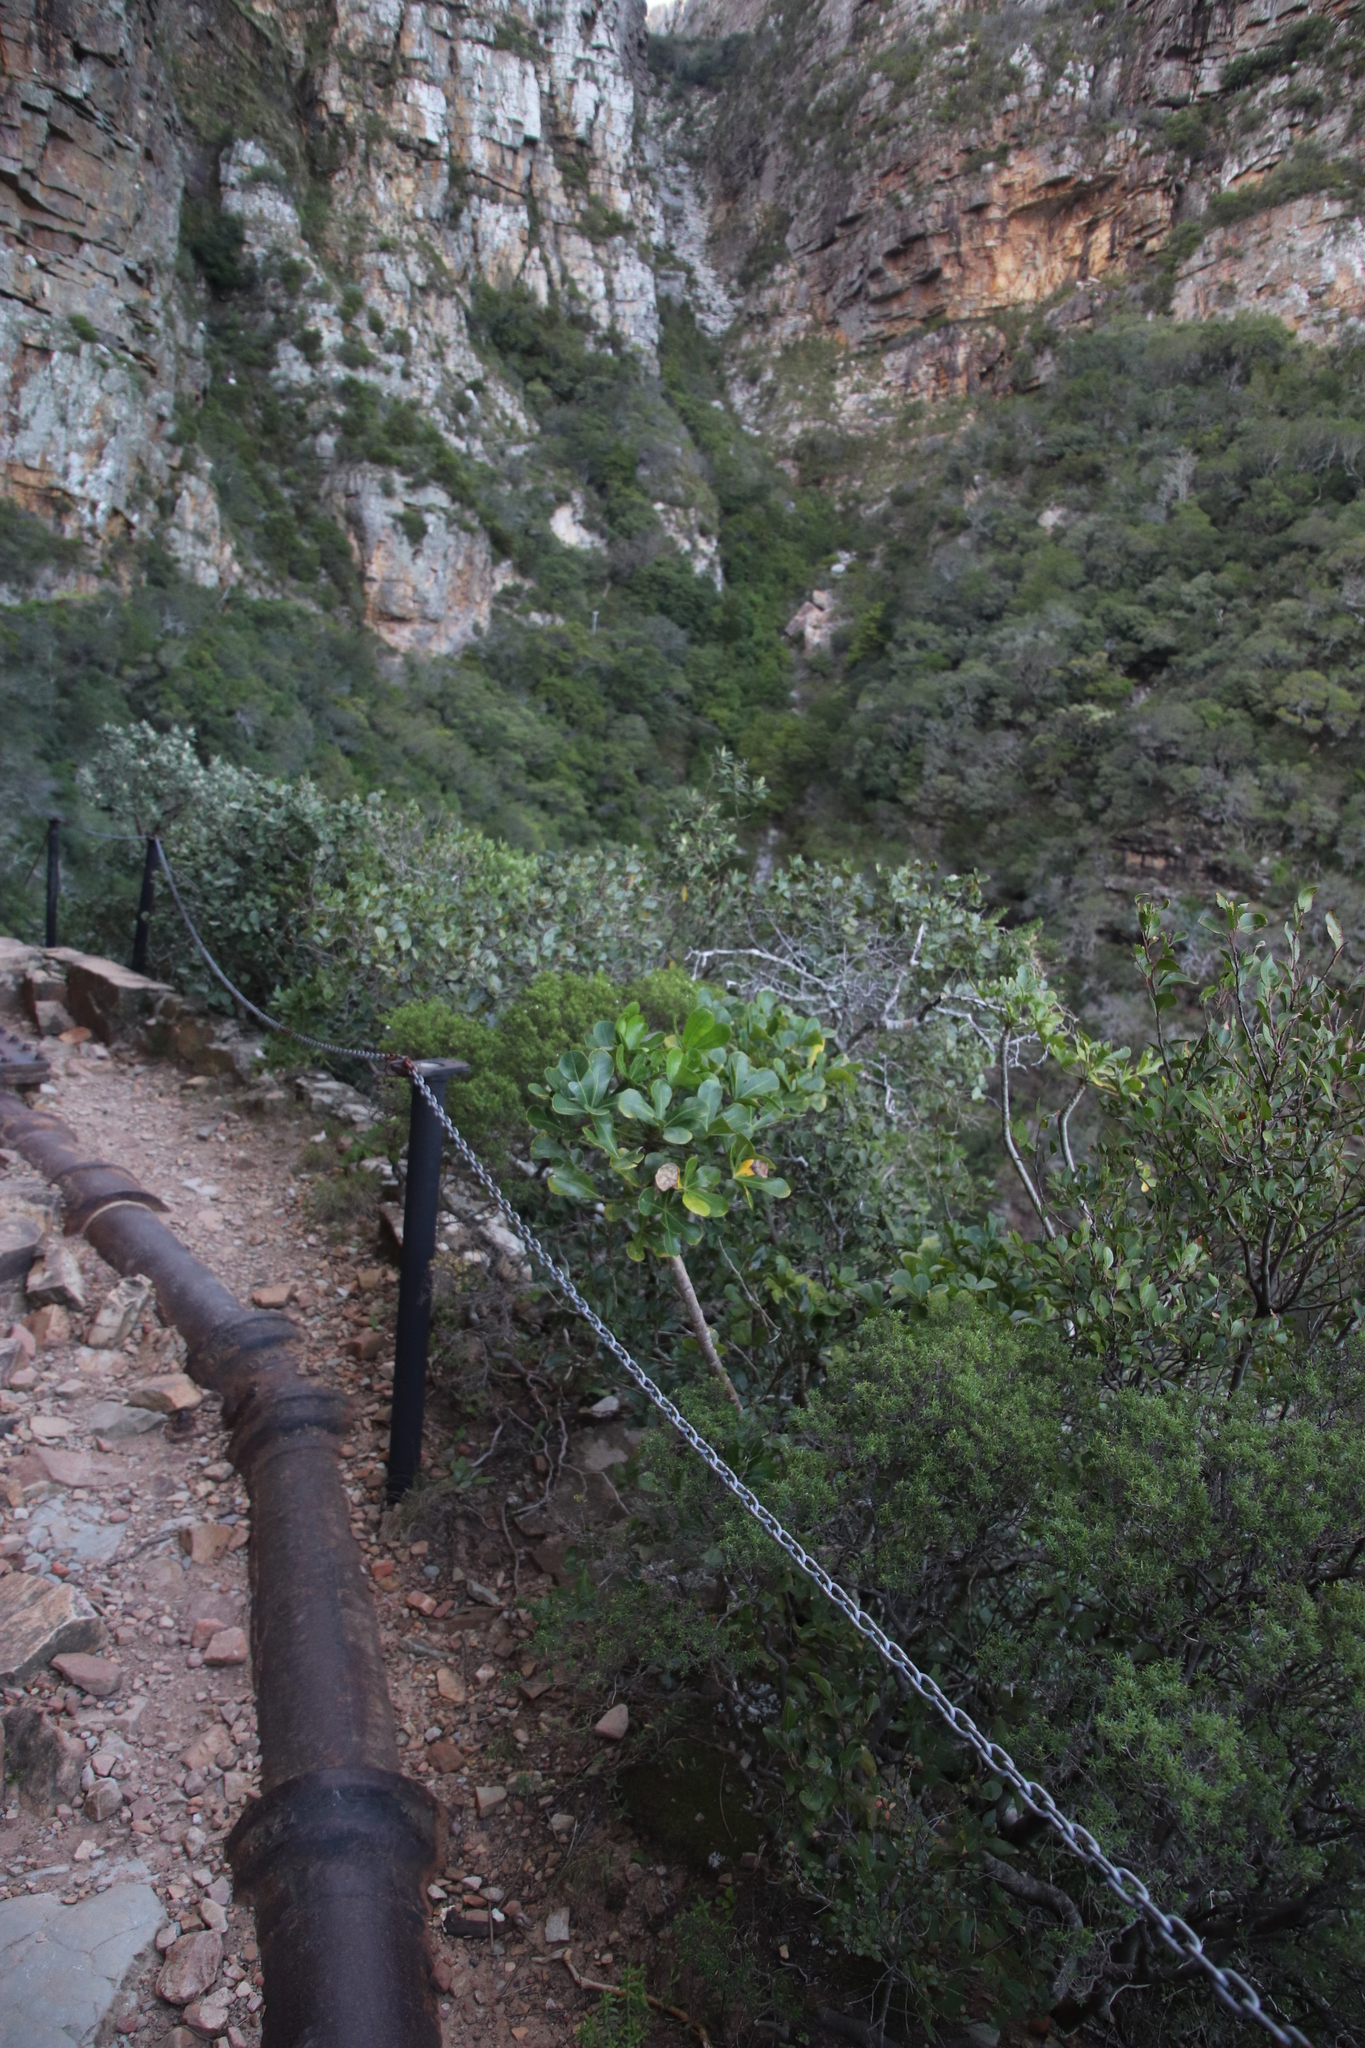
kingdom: Plantae
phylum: Tracheophyta
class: Magnoliopsida
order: Apiales
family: Araliaceae
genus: Cussonia
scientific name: Cussonia thyrsiflora
